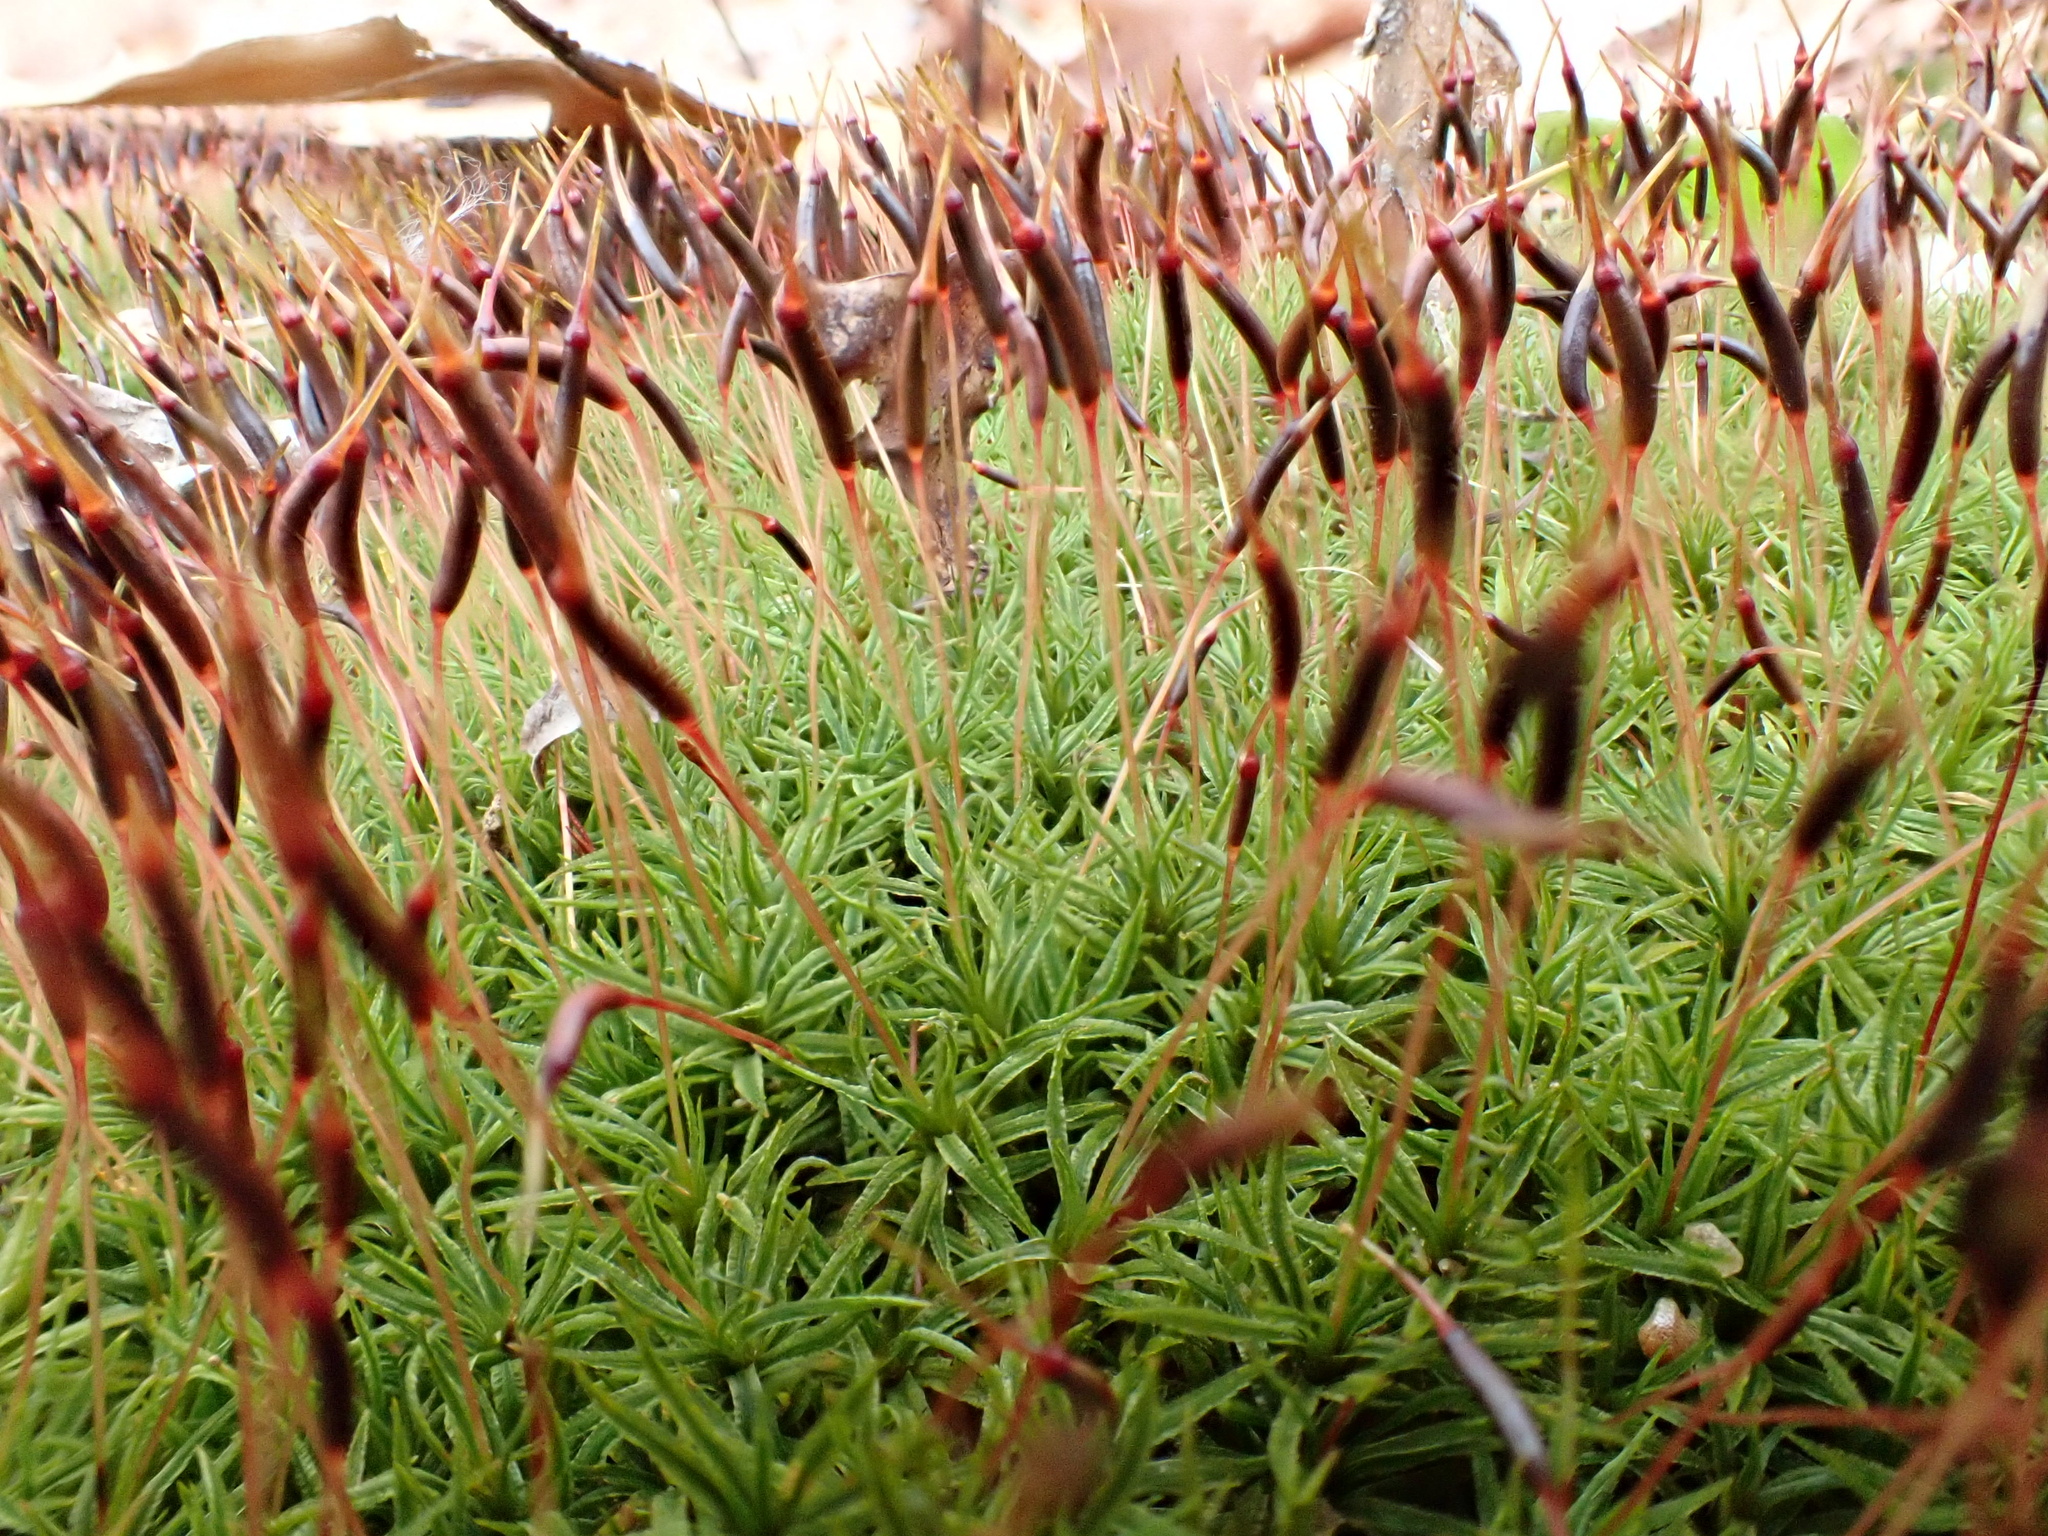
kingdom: Plantae
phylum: Bryophyta
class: Polytrichopsida
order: Polytrichales
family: Polytrichaceae
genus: Atrichum
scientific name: Atrichum angustatum
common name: Lesser smoothcap
